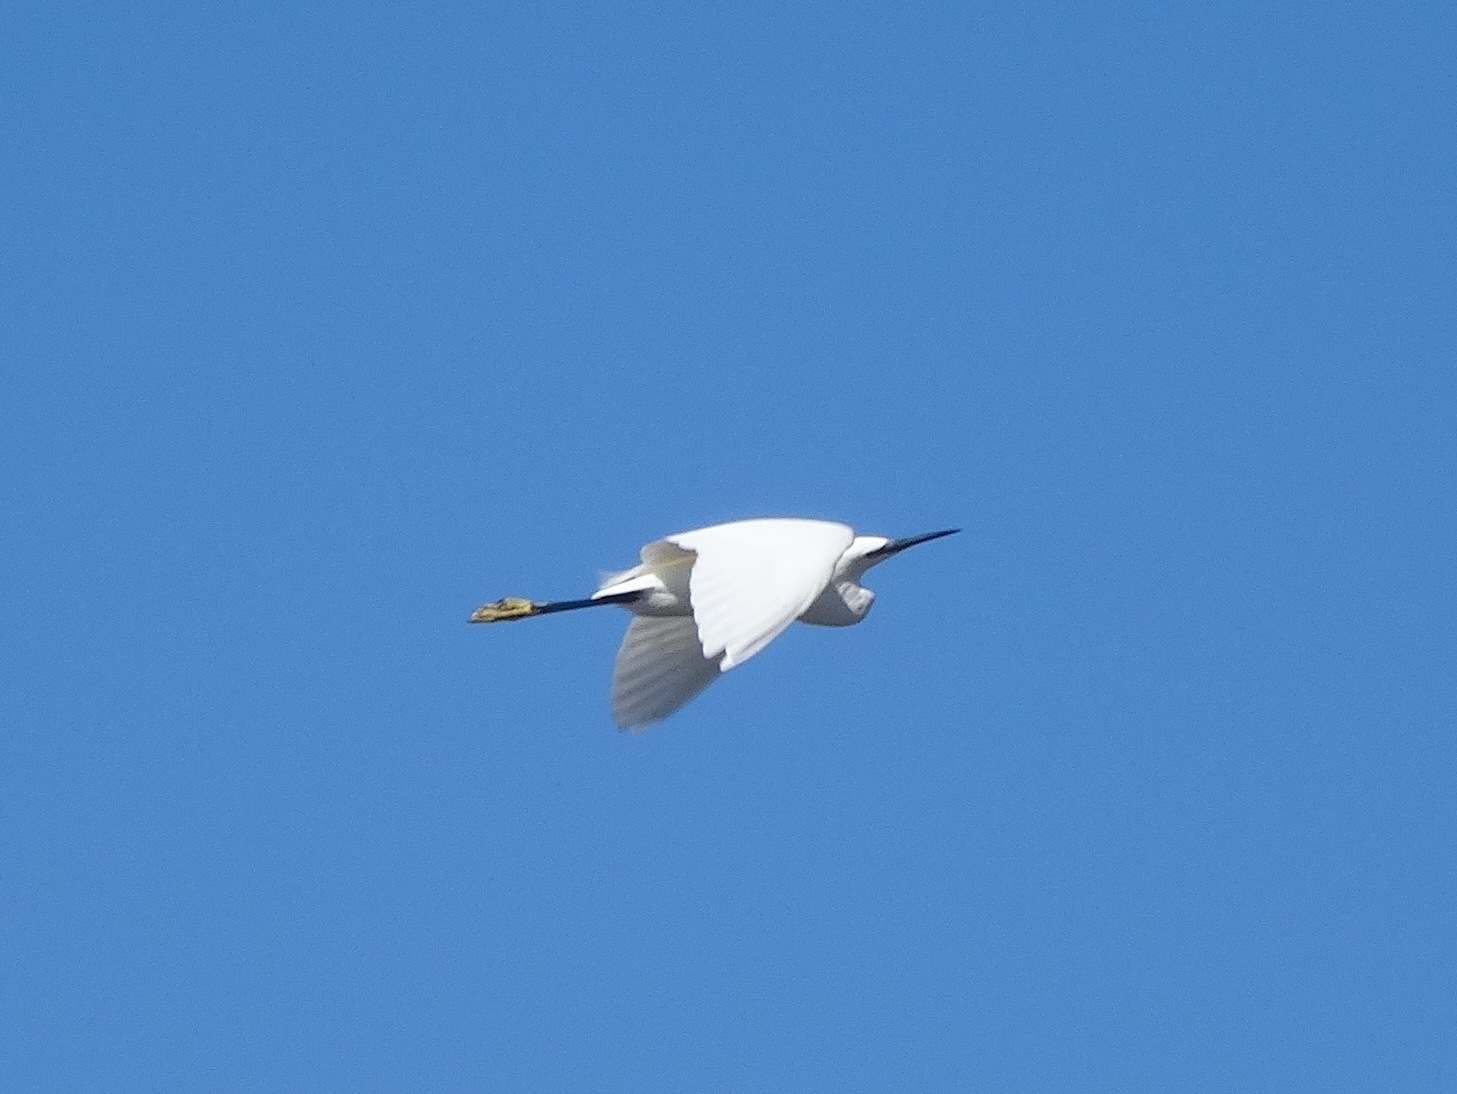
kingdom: Animalia
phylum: Chordata
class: Aves
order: Pelecaniformes
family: Ardeidae
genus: Egretta
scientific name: Egretta garzetta
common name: Little egret
